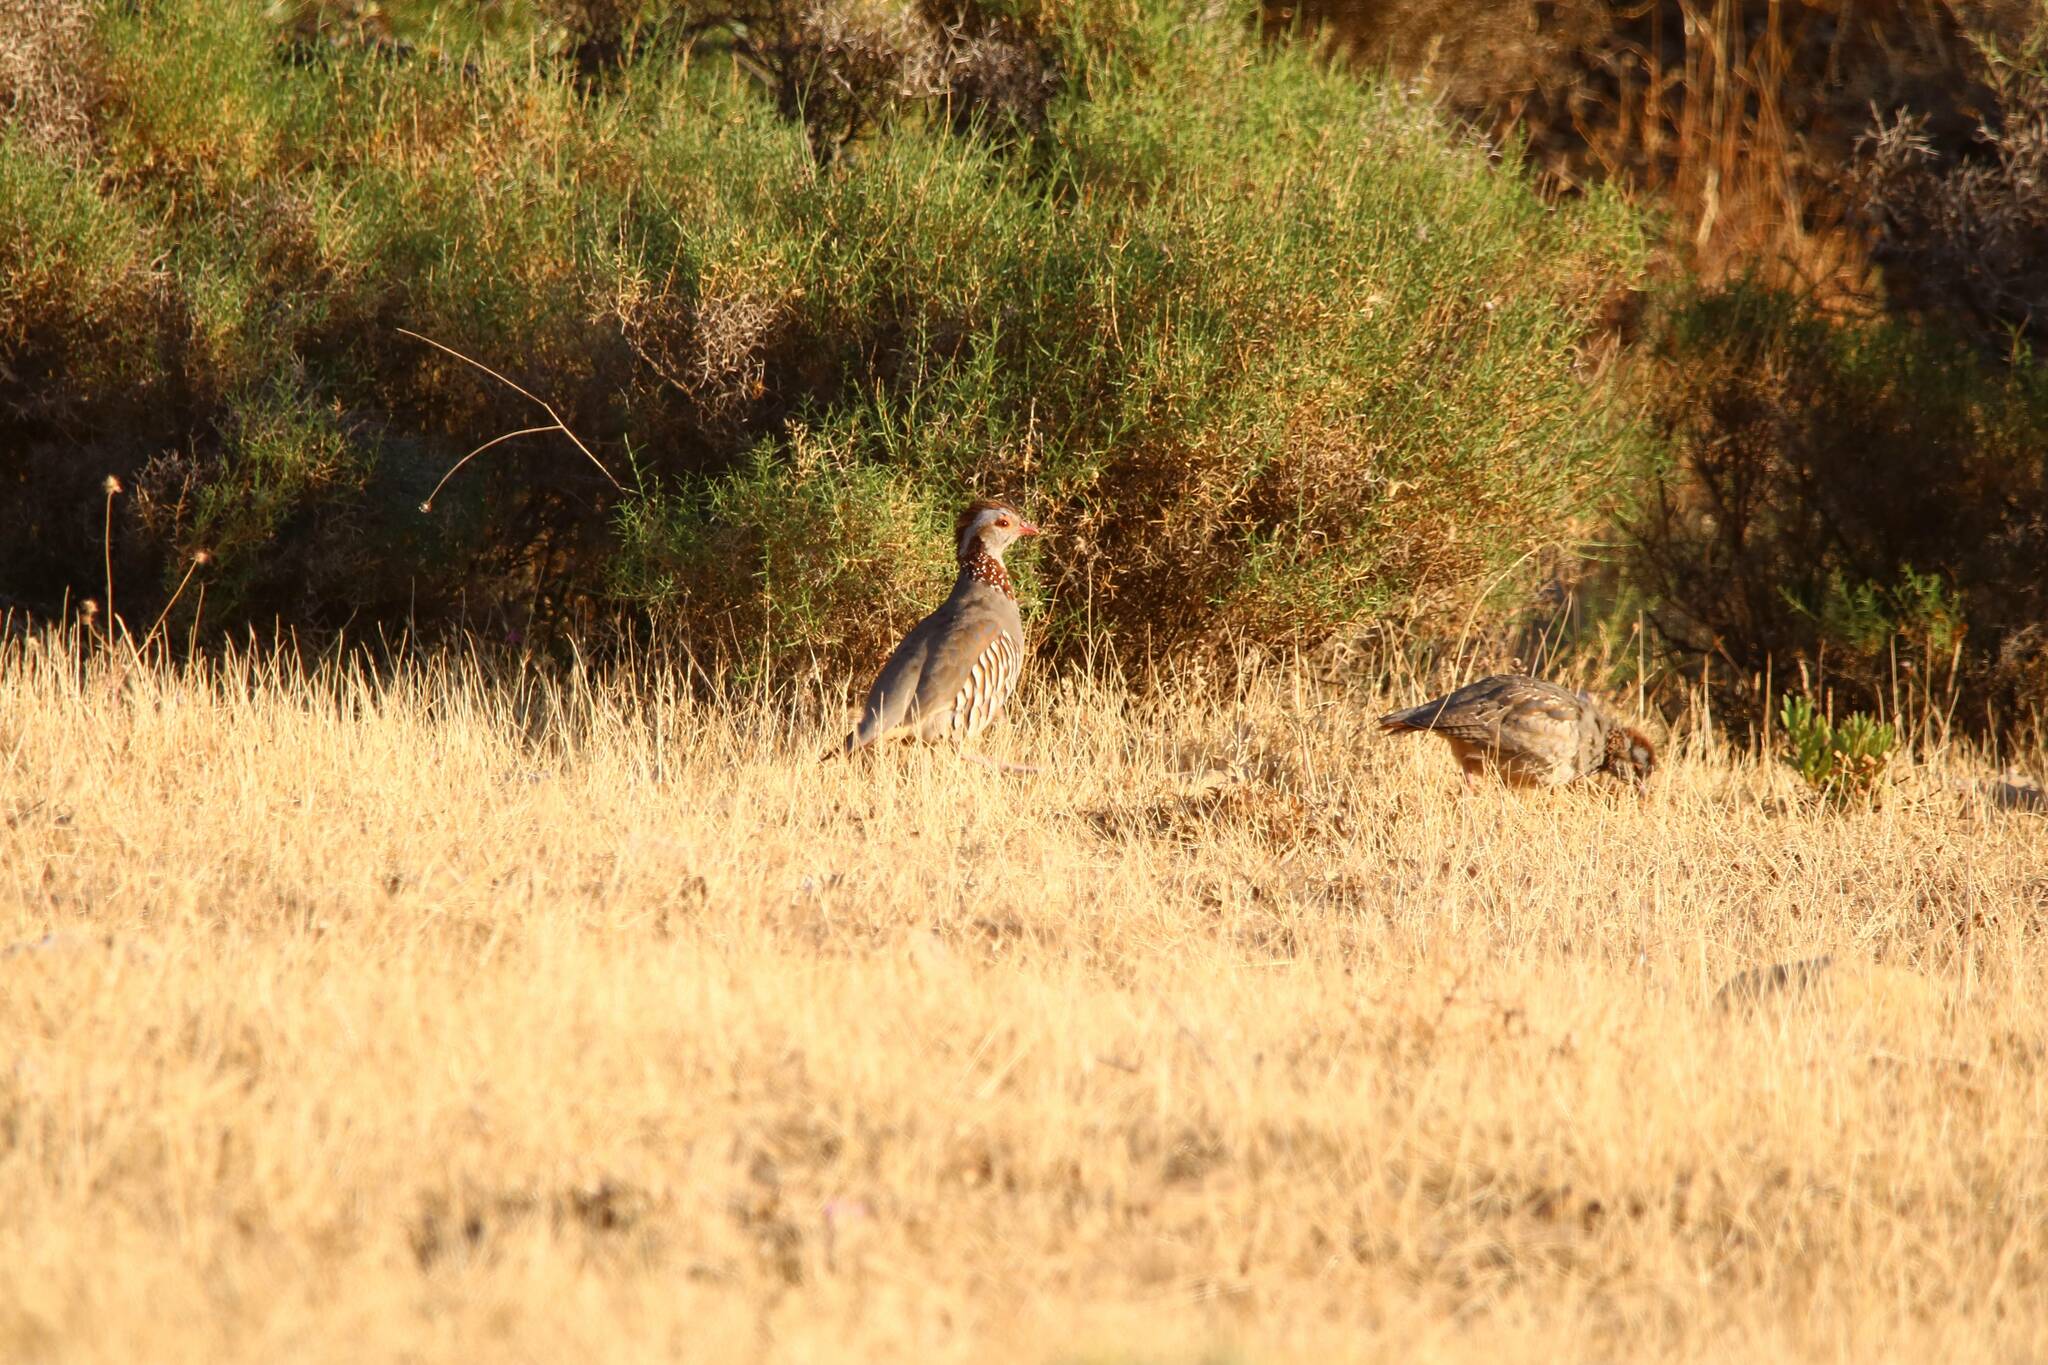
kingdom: Animalia
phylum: Chordata
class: Aves
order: Galliformes
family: Phasianidae
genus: Alectoris
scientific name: Alectoris barbara
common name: Barbary partridge
